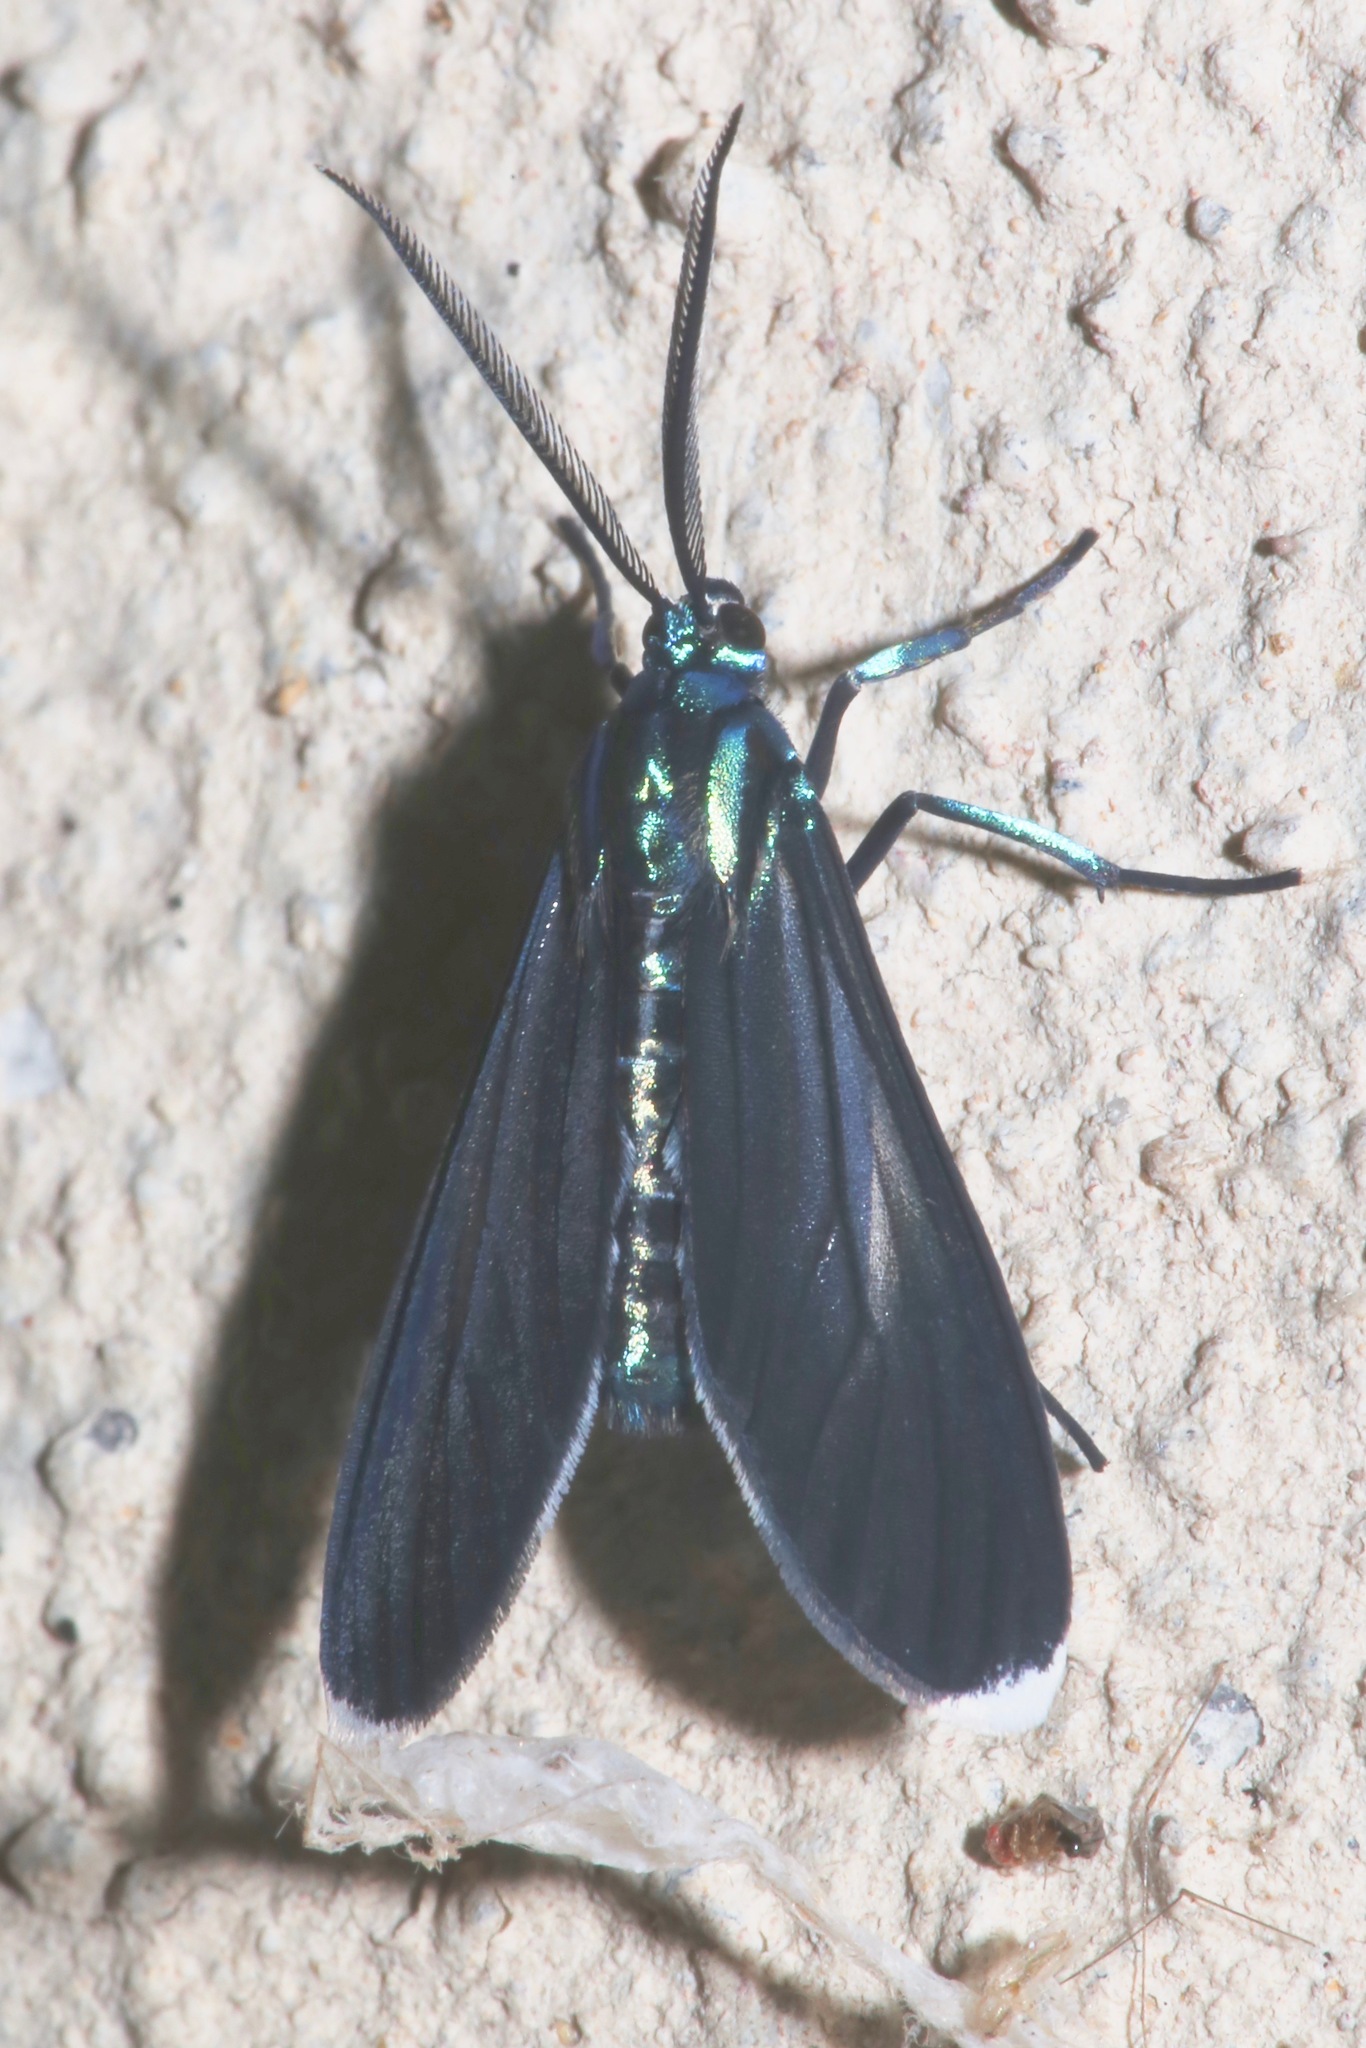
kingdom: Animalia
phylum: Arthropoda
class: Insecta
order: Lepidoptera
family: Erebidae
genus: Uranophora
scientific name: Uranophora leucotela
